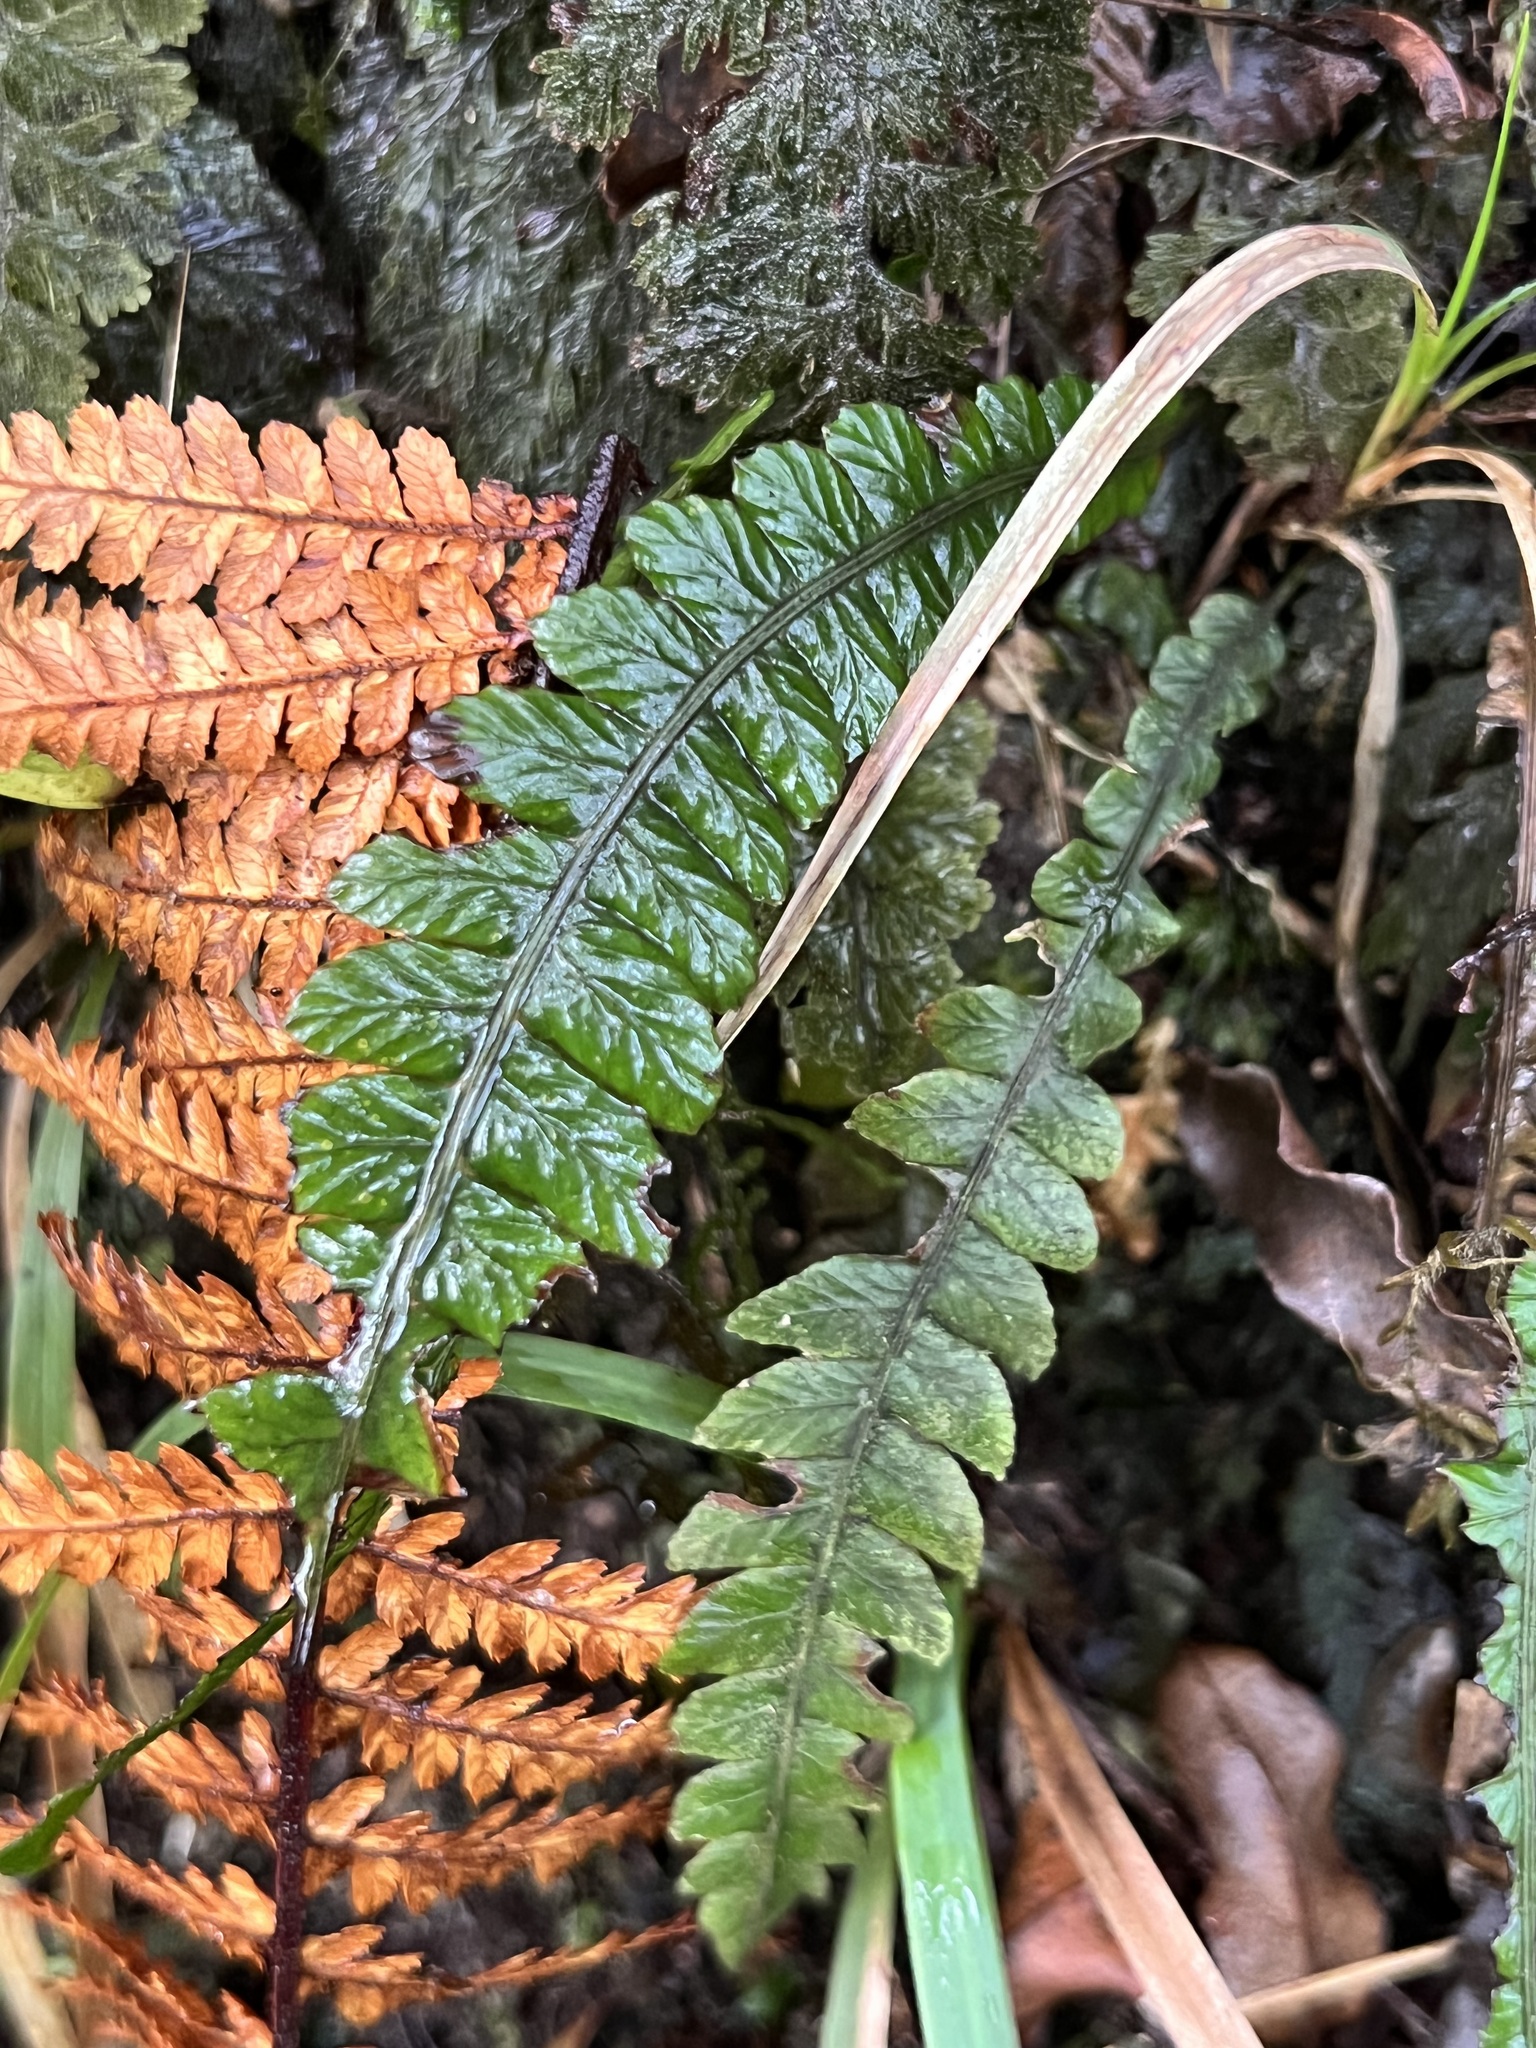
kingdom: Plantae
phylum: Tracheophyta
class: Polypodiopsida
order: Polypodiales
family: Blechnaceae
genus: Austroblechnum
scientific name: Austroblechnum membranaceum
